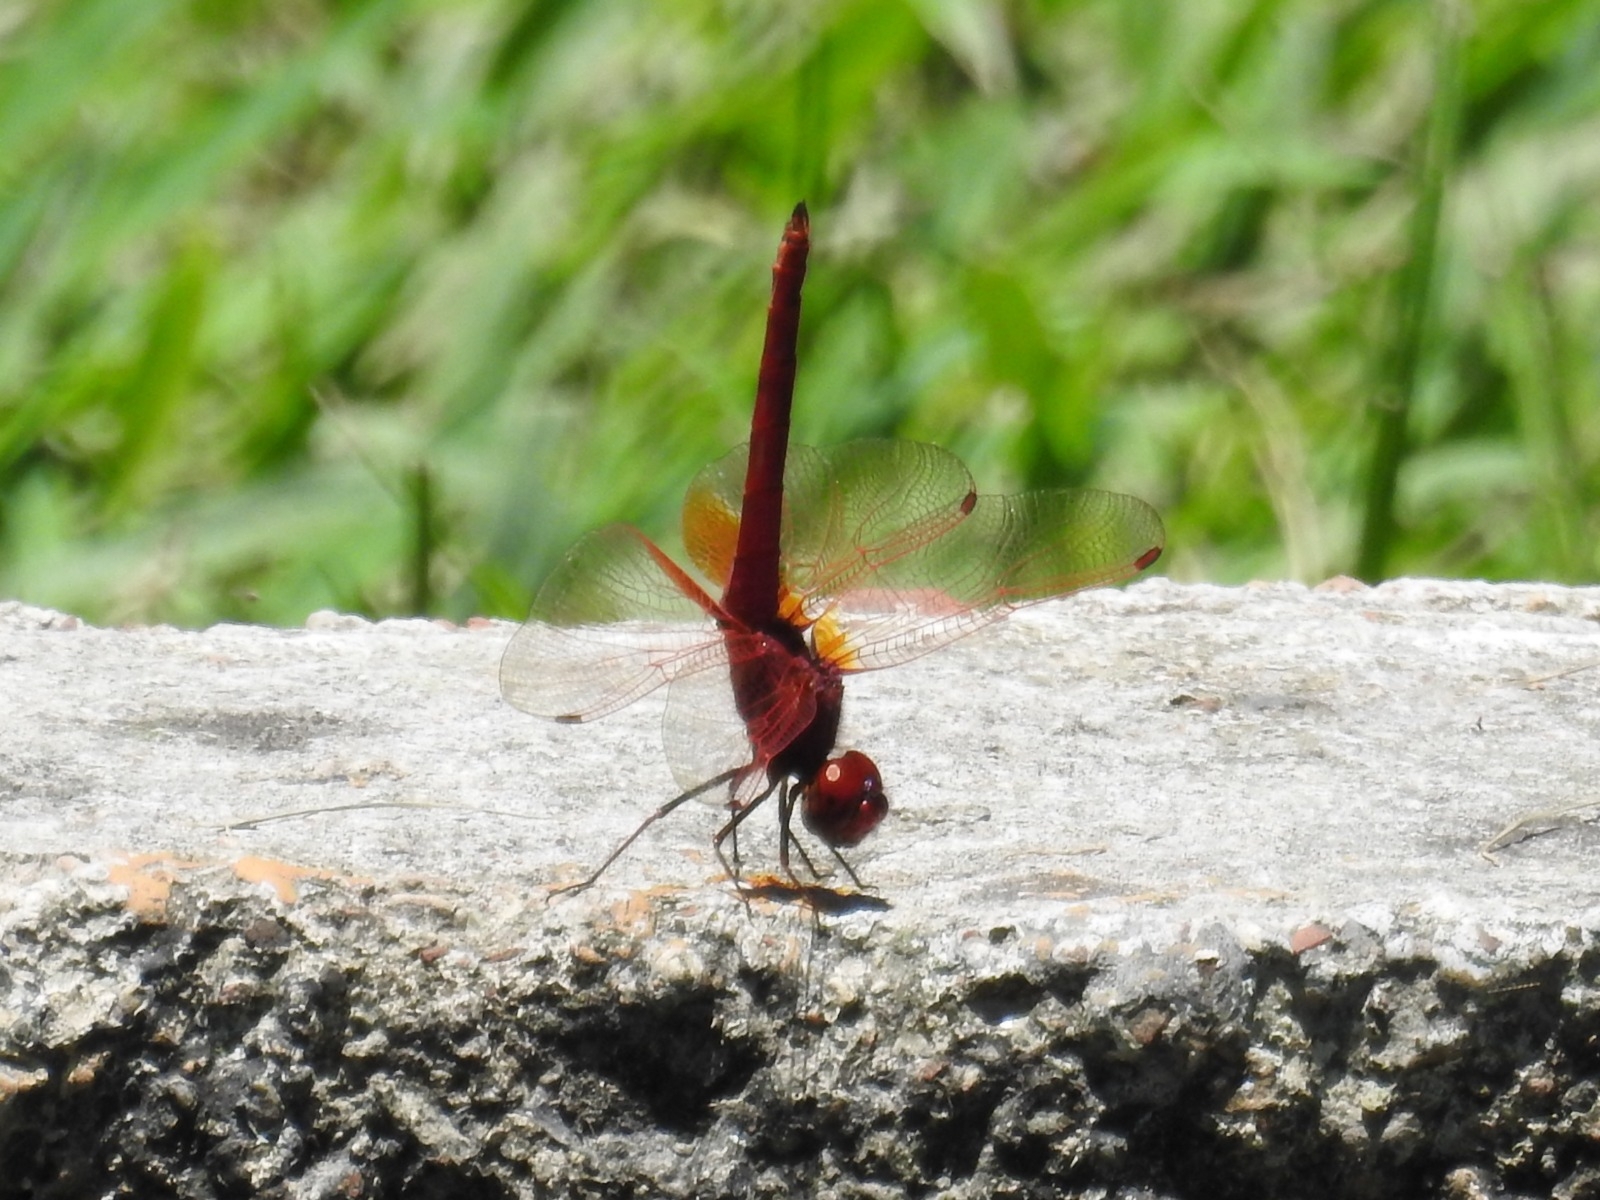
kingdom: Animalia
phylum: Arthropoda
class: Insecta
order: Odonata
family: Libellulidae
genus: Trithemis
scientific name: Trithemis aurora
